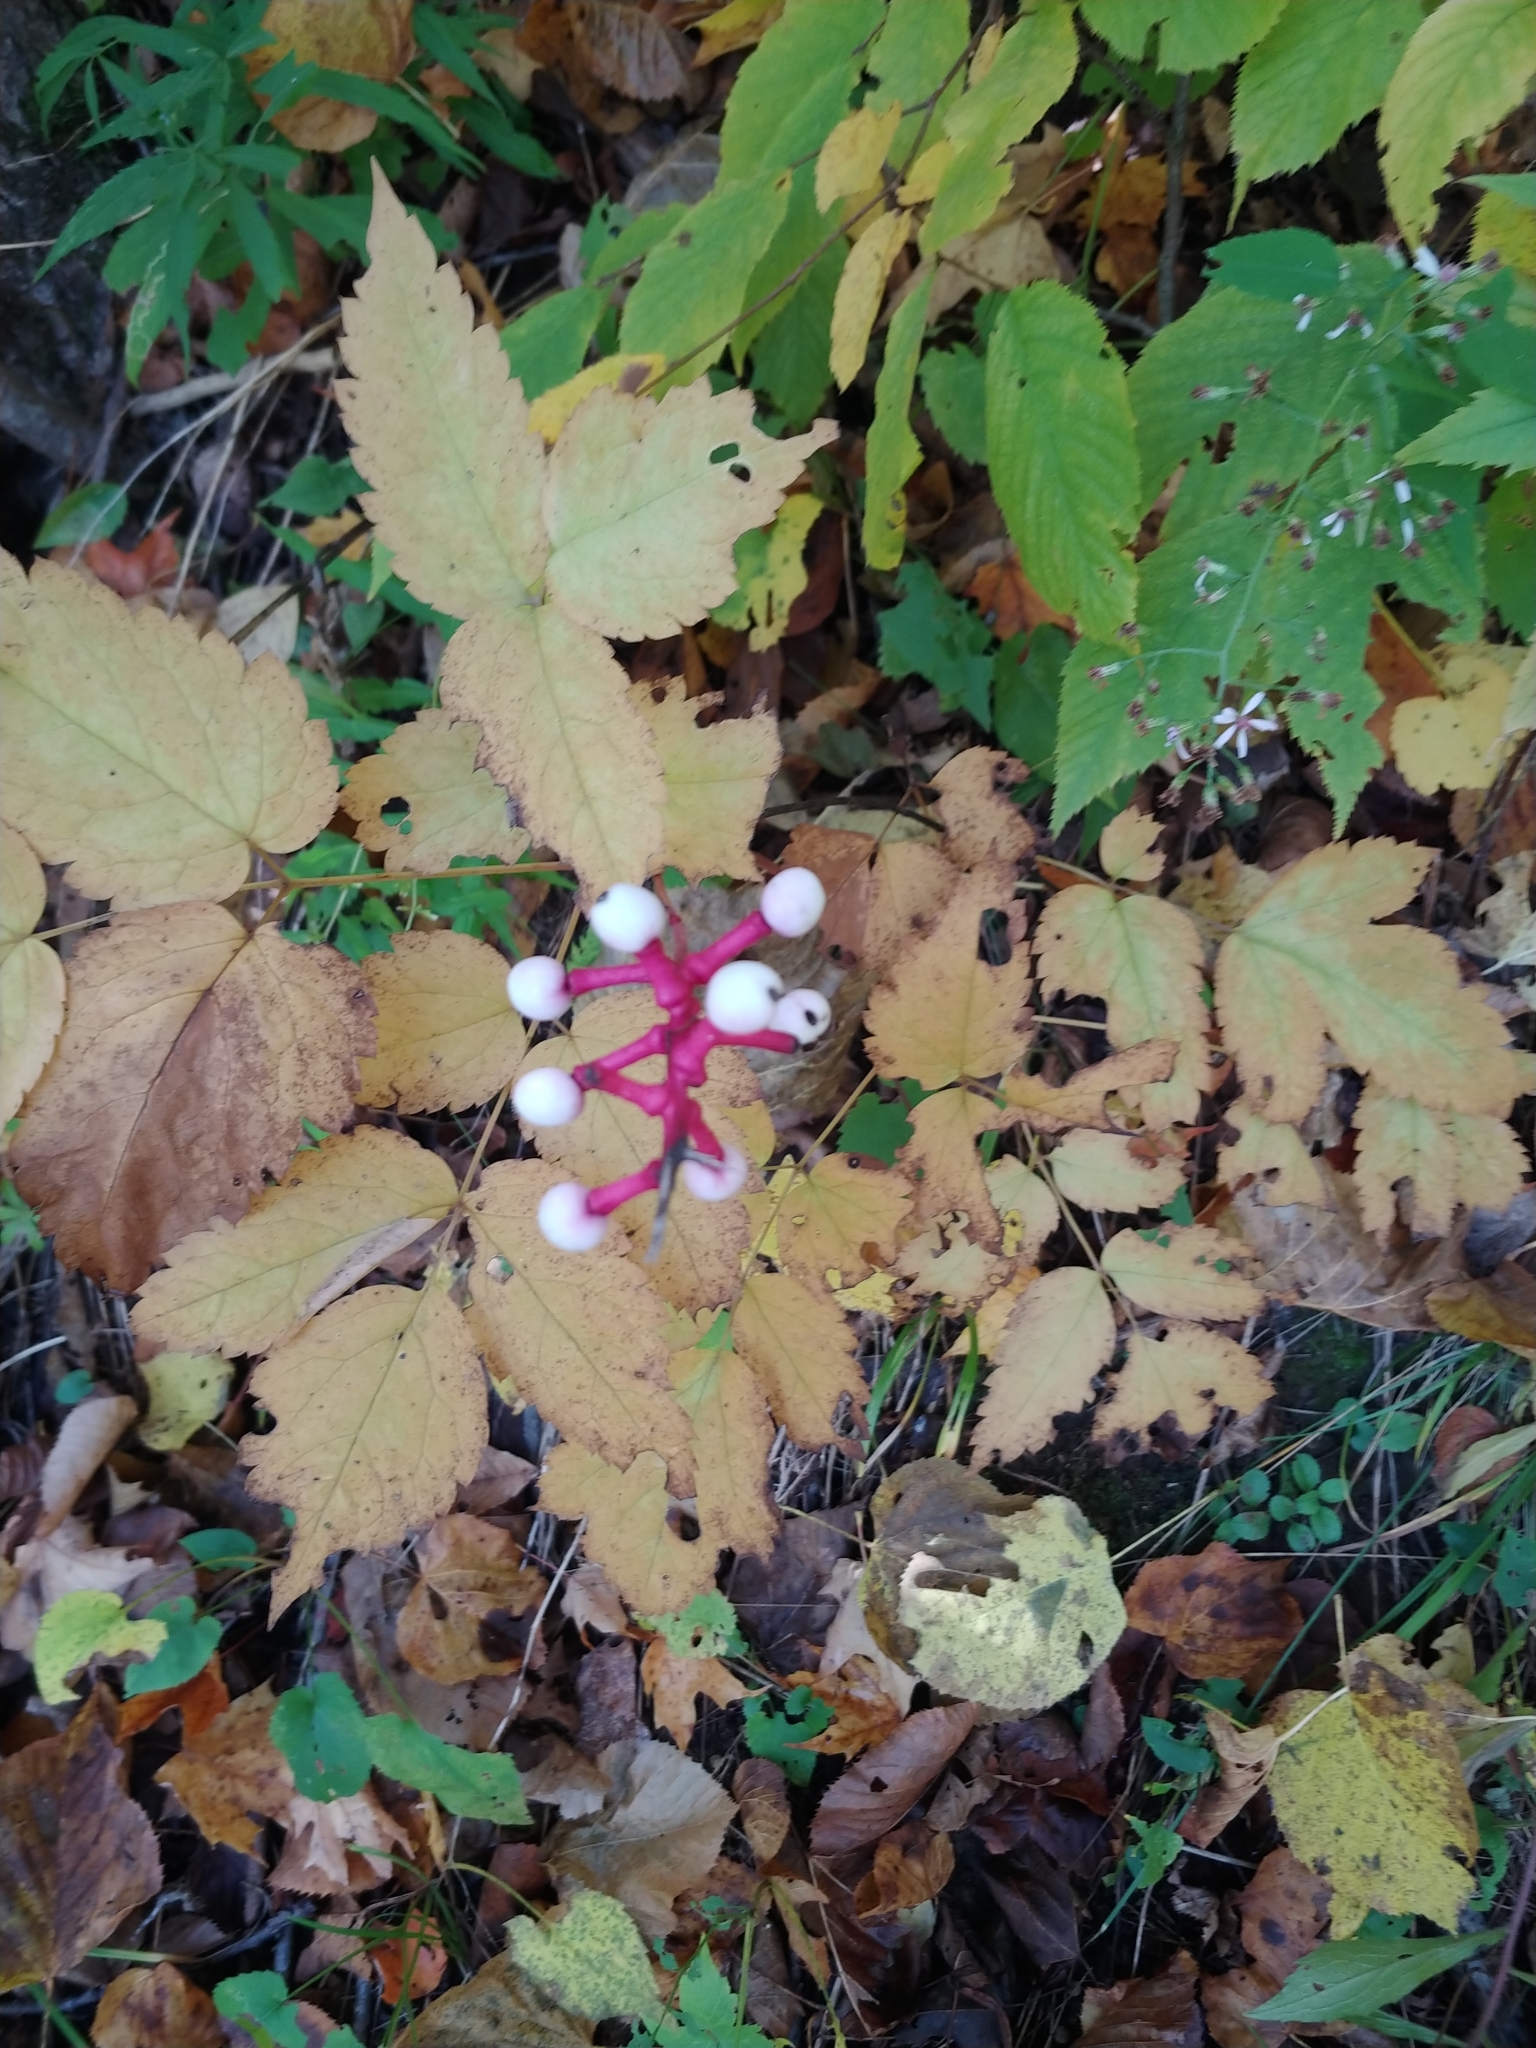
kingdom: Plantae
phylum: Tracheophyta
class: Magnoliopsida
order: Ranunculales
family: Ranunculaceae
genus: Actaea
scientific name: Actaea pachypoda
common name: Doll's-eyes
